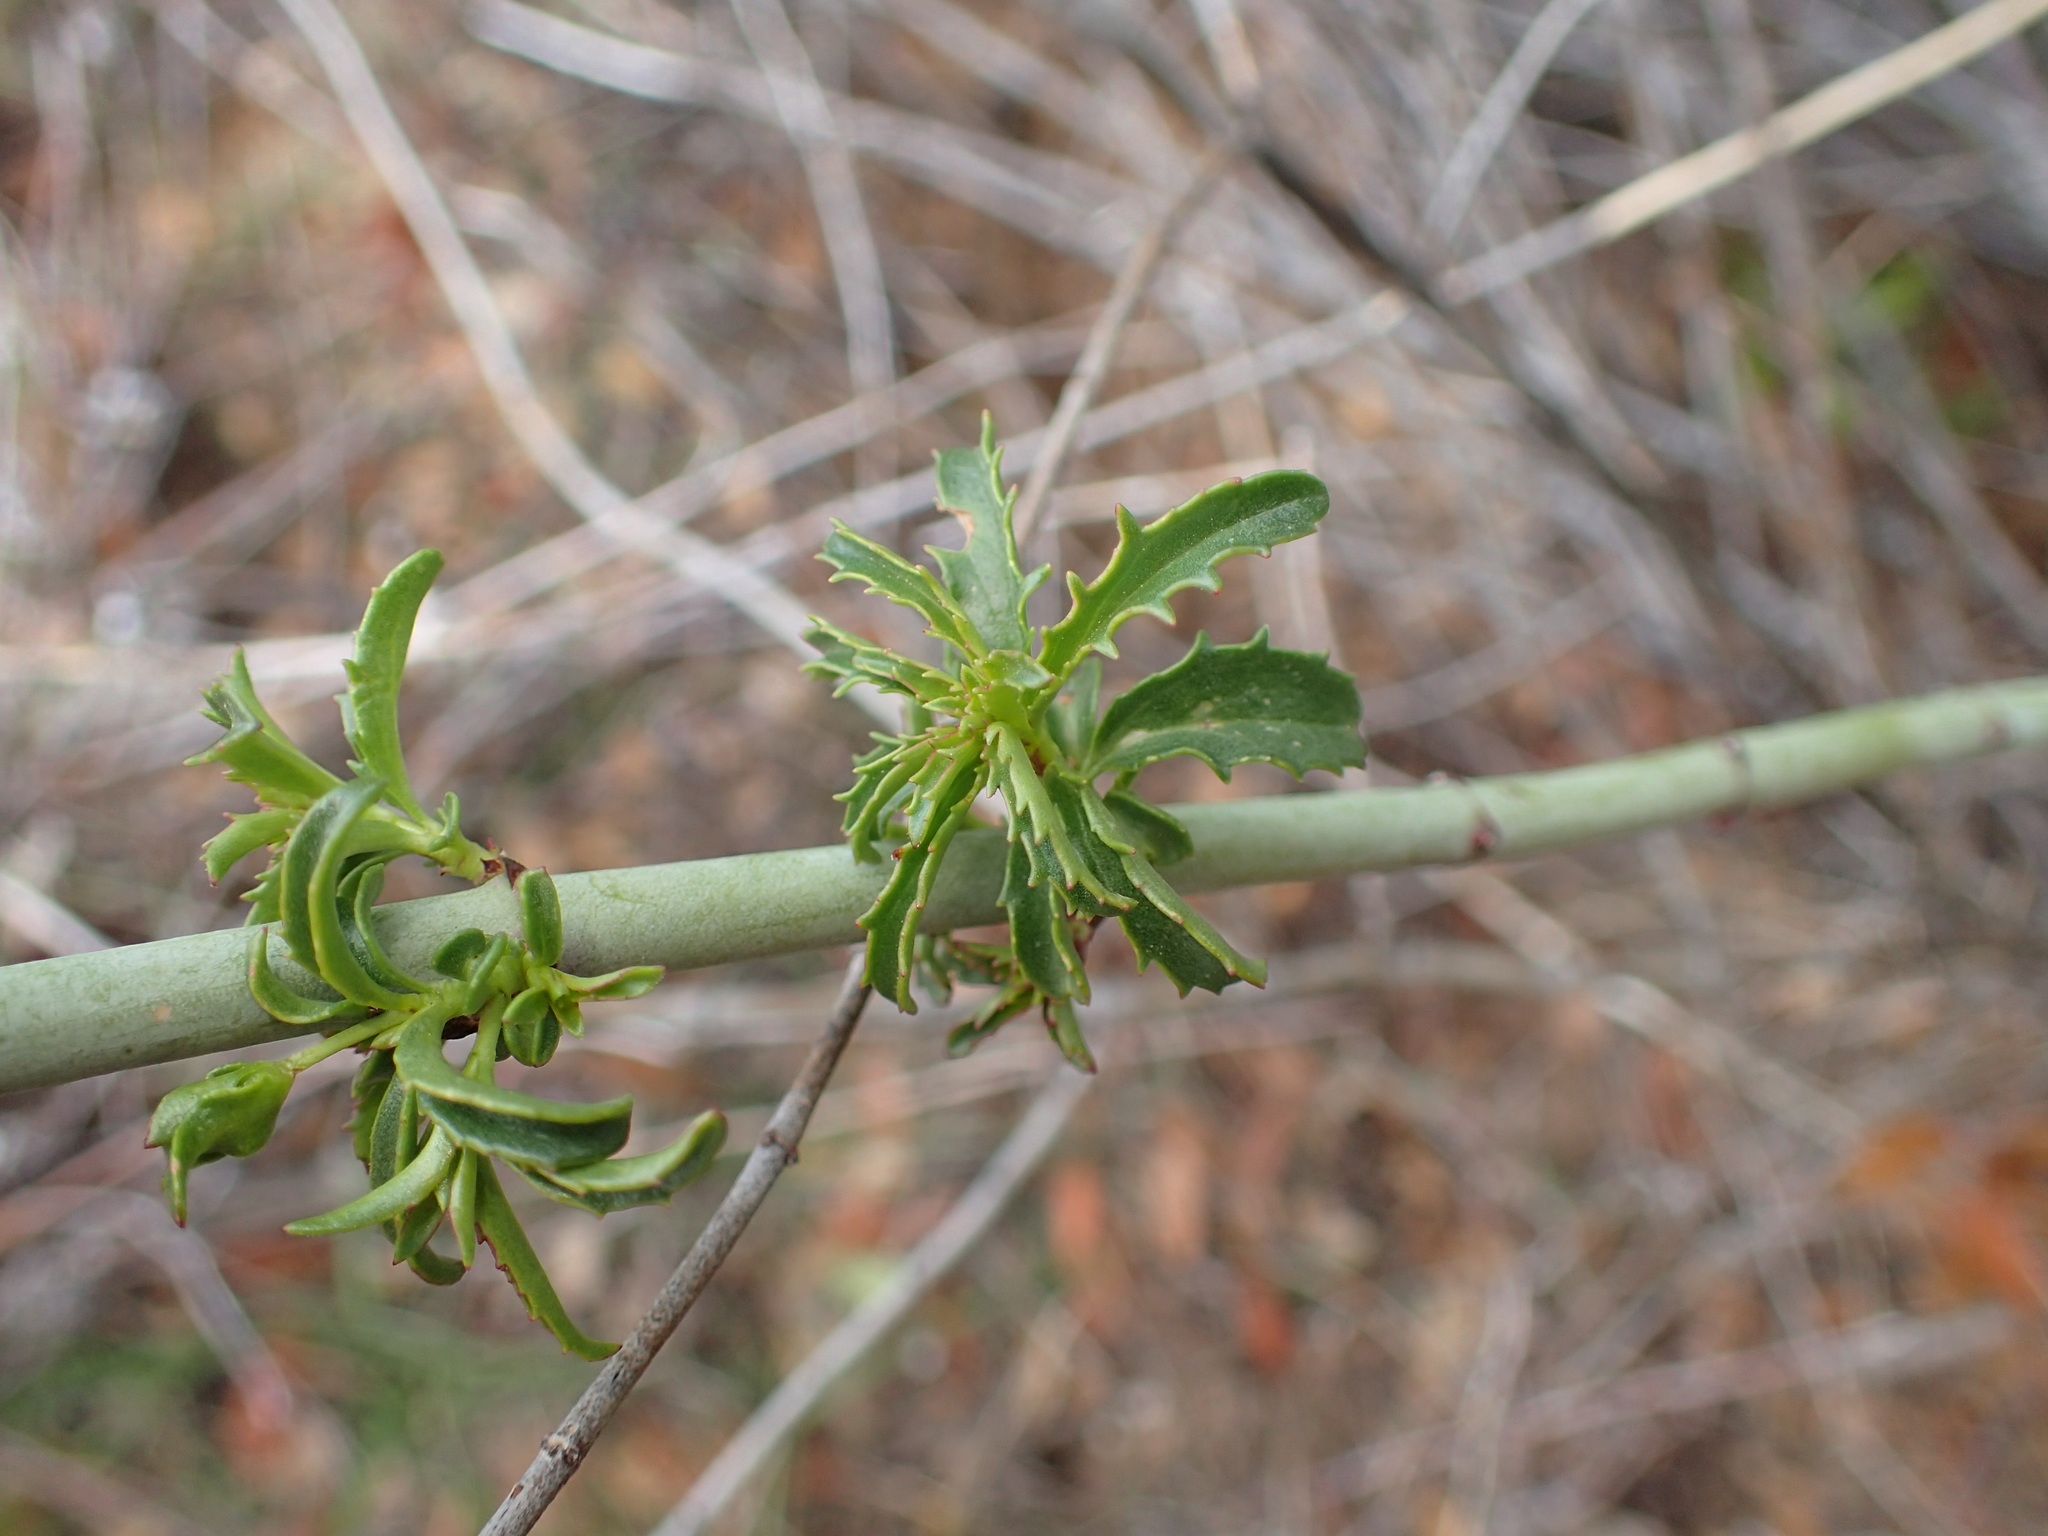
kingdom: Plantae
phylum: Tracheophyta
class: Magnoliopsida
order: Lamiales
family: Plantaginaceae
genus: Keckiella
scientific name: Keckiella ternata
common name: Scarlet keckiella
